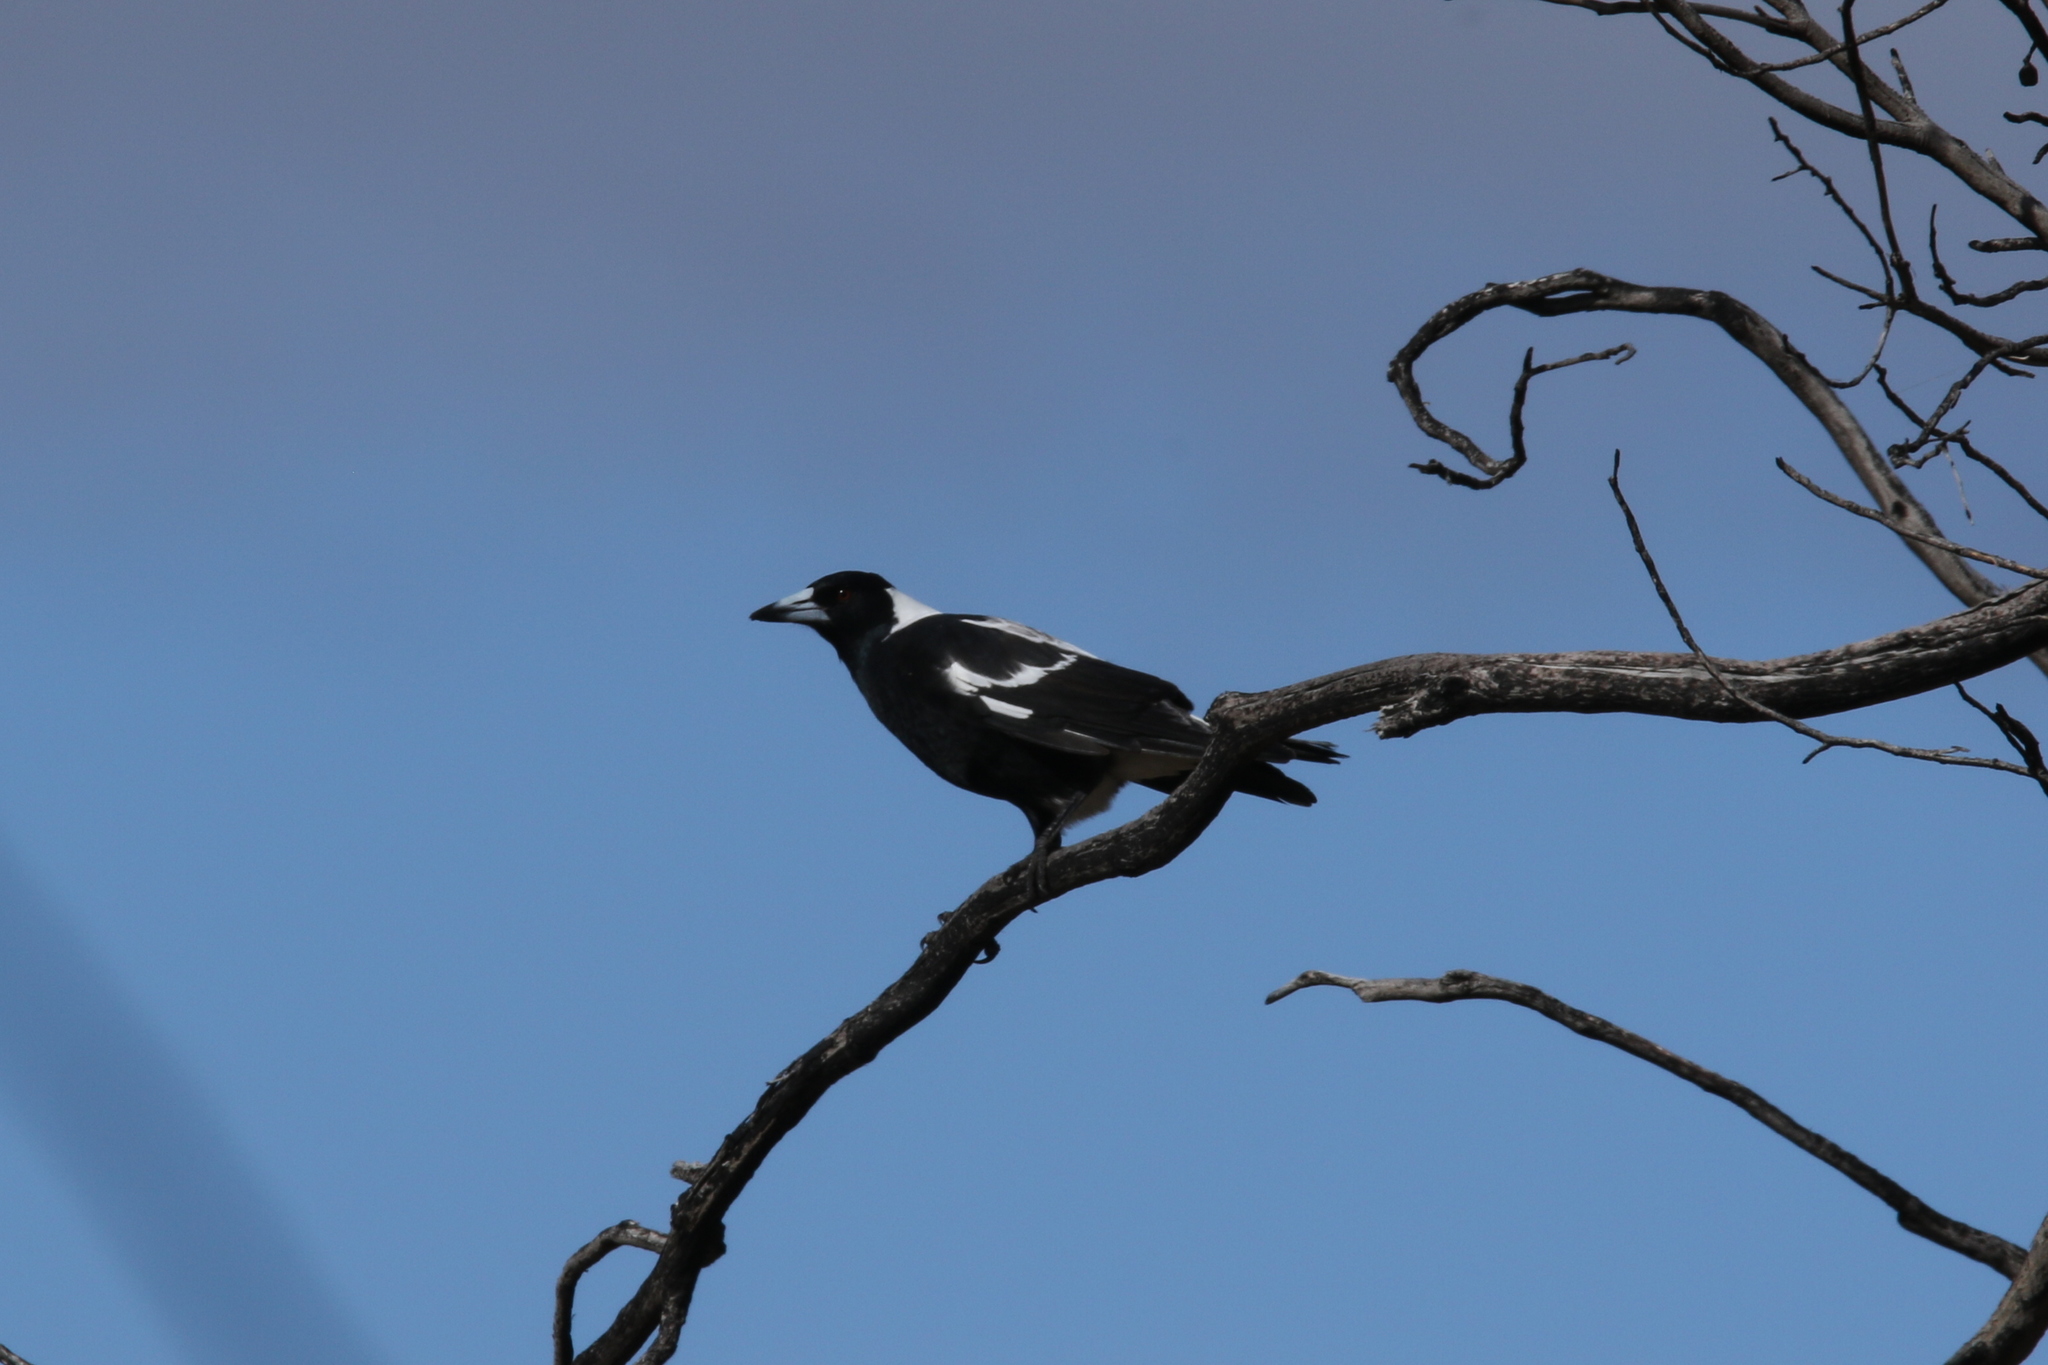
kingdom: Animalia
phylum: Chordata
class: Aves
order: Passeriformes
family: Cracticidae
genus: Gymnorhina
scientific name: Gymnorhina tibicen
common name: Australian magpie
